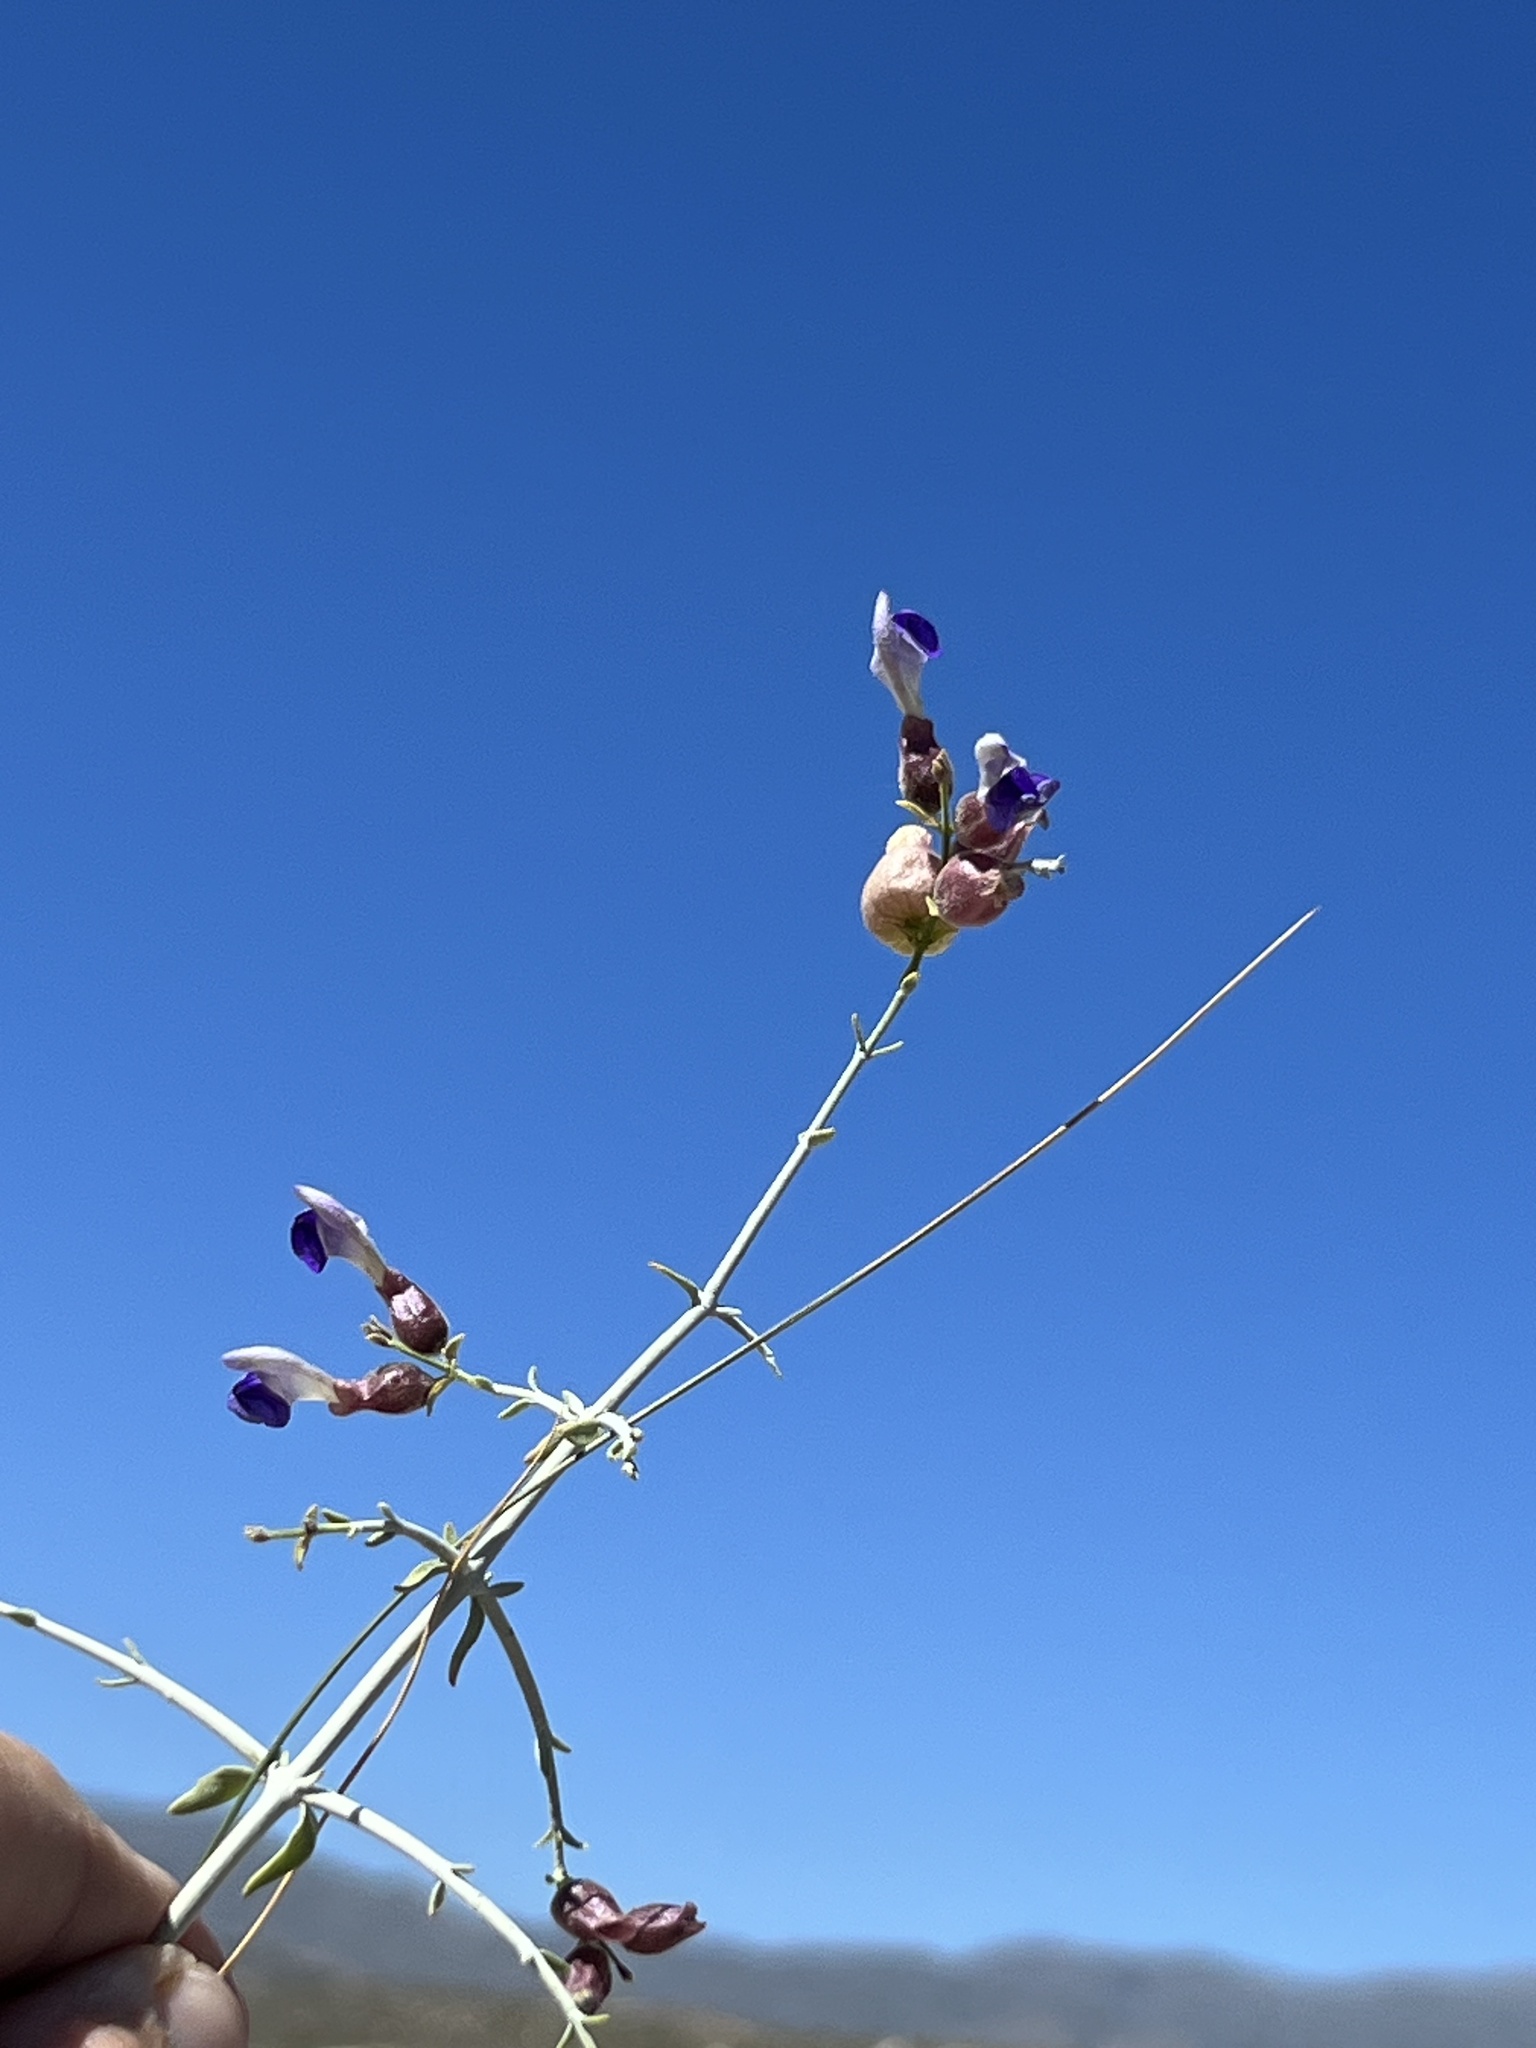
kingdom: Plantae
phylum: Tracheophyta
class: Magnoliopsida
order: Lamiales
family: Lamiaceae
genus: Scutellaria
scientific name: Scutellaria mexicana
